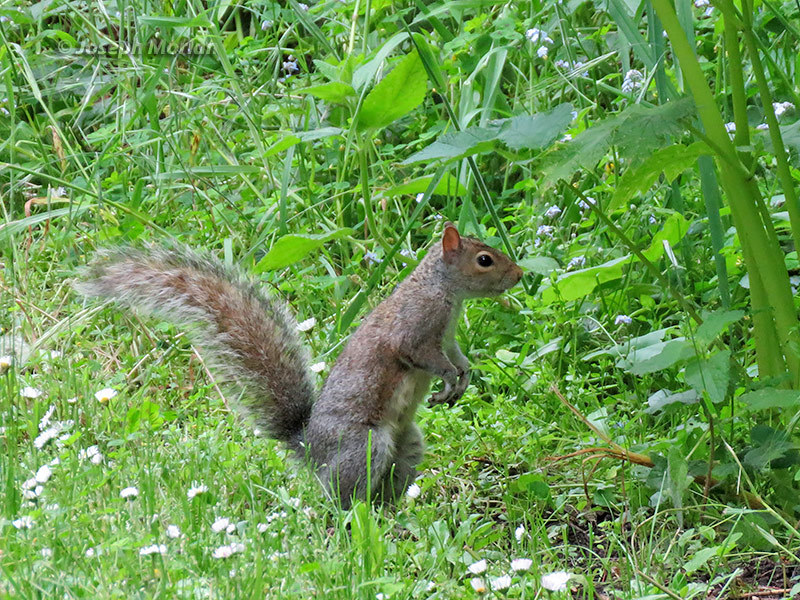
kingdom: Animalia
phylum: Chordata
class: Mammalia
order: Rodentia
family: Sciuridae
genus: Sciurus
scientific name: Sciurus carolinensis
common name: Eastern gray squirrel
